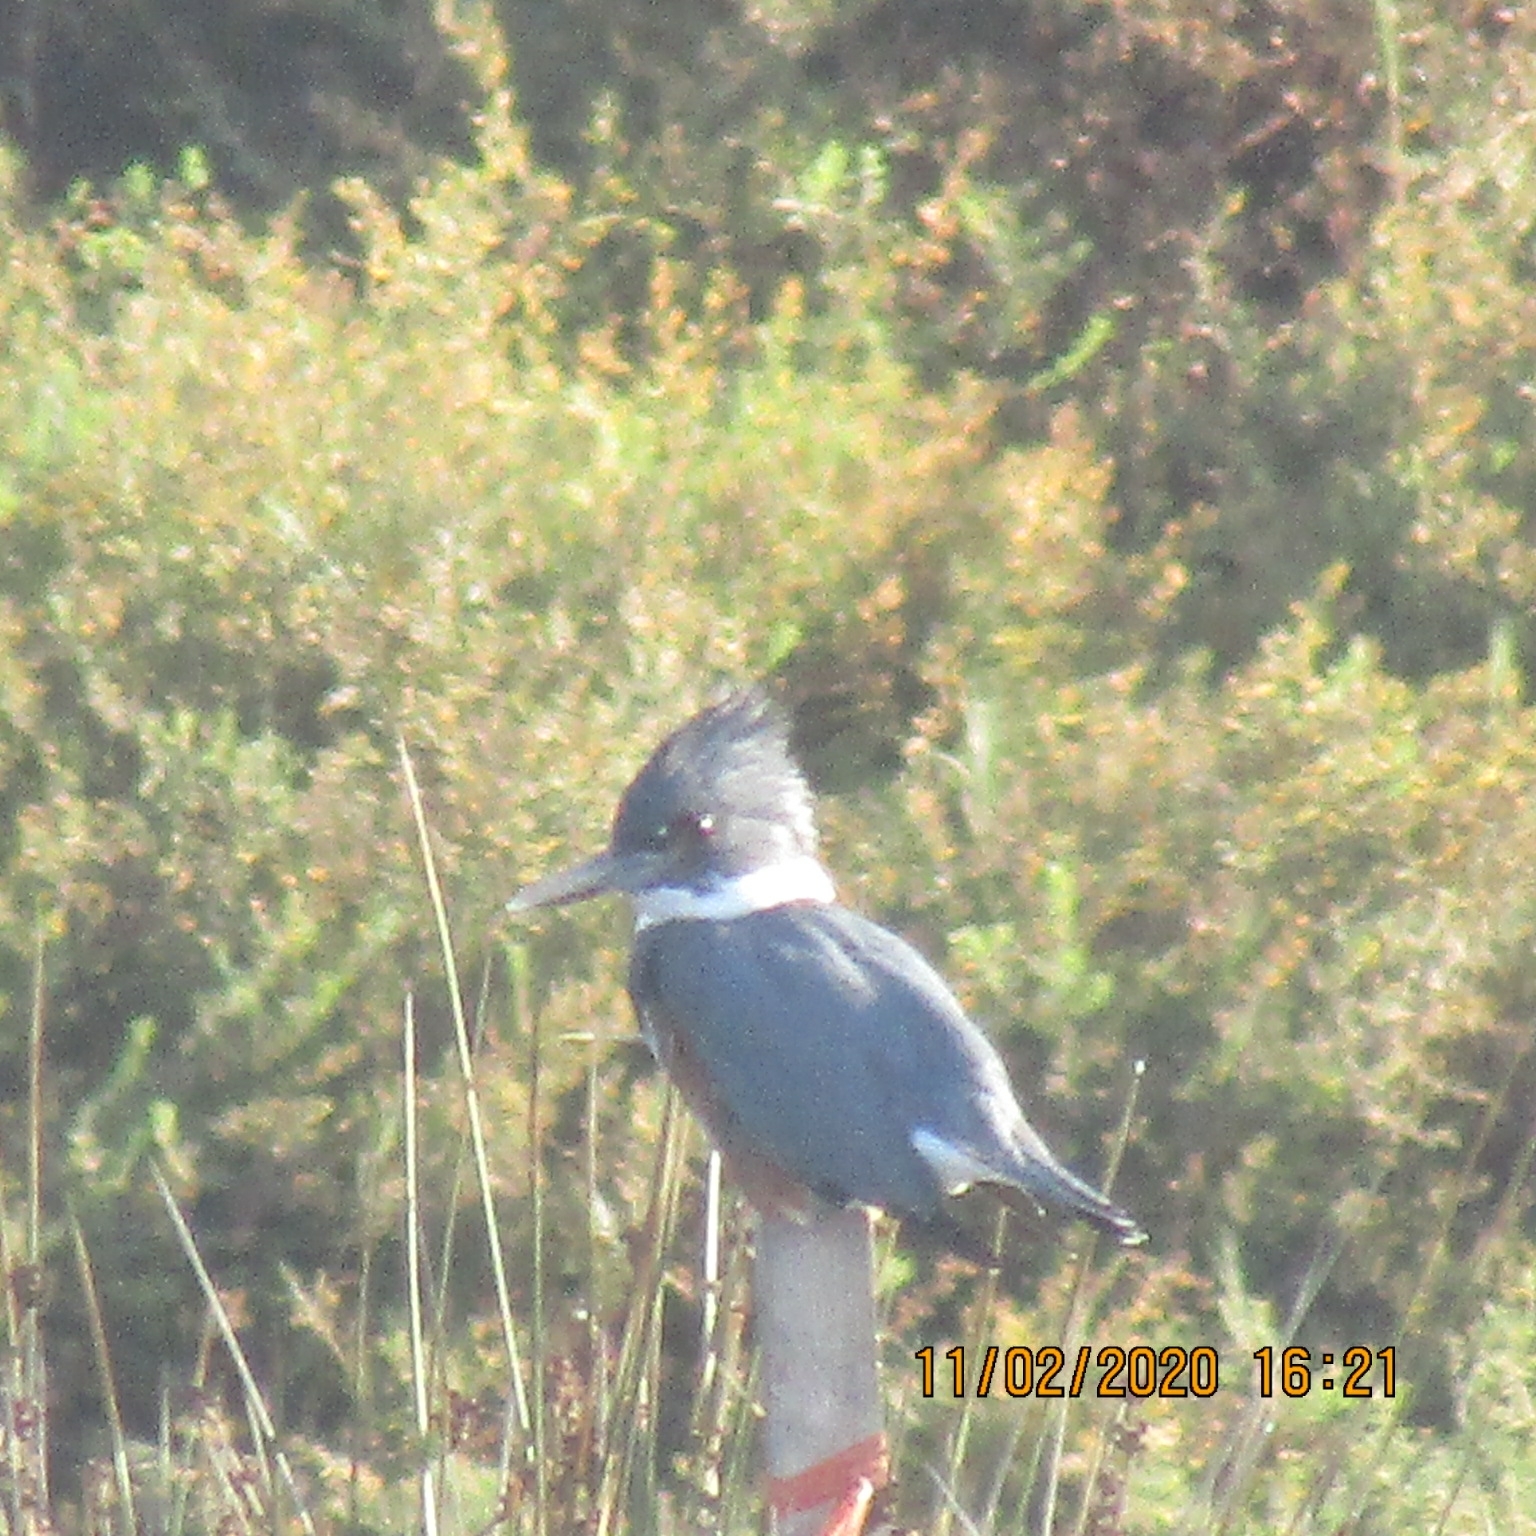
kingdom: Animalia
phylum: Chordata
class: Aves
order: Coraciiformes
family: Alcedinidae
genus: Megaceryle
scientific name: Megaceryle alcyon
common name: Belted kingfisher
